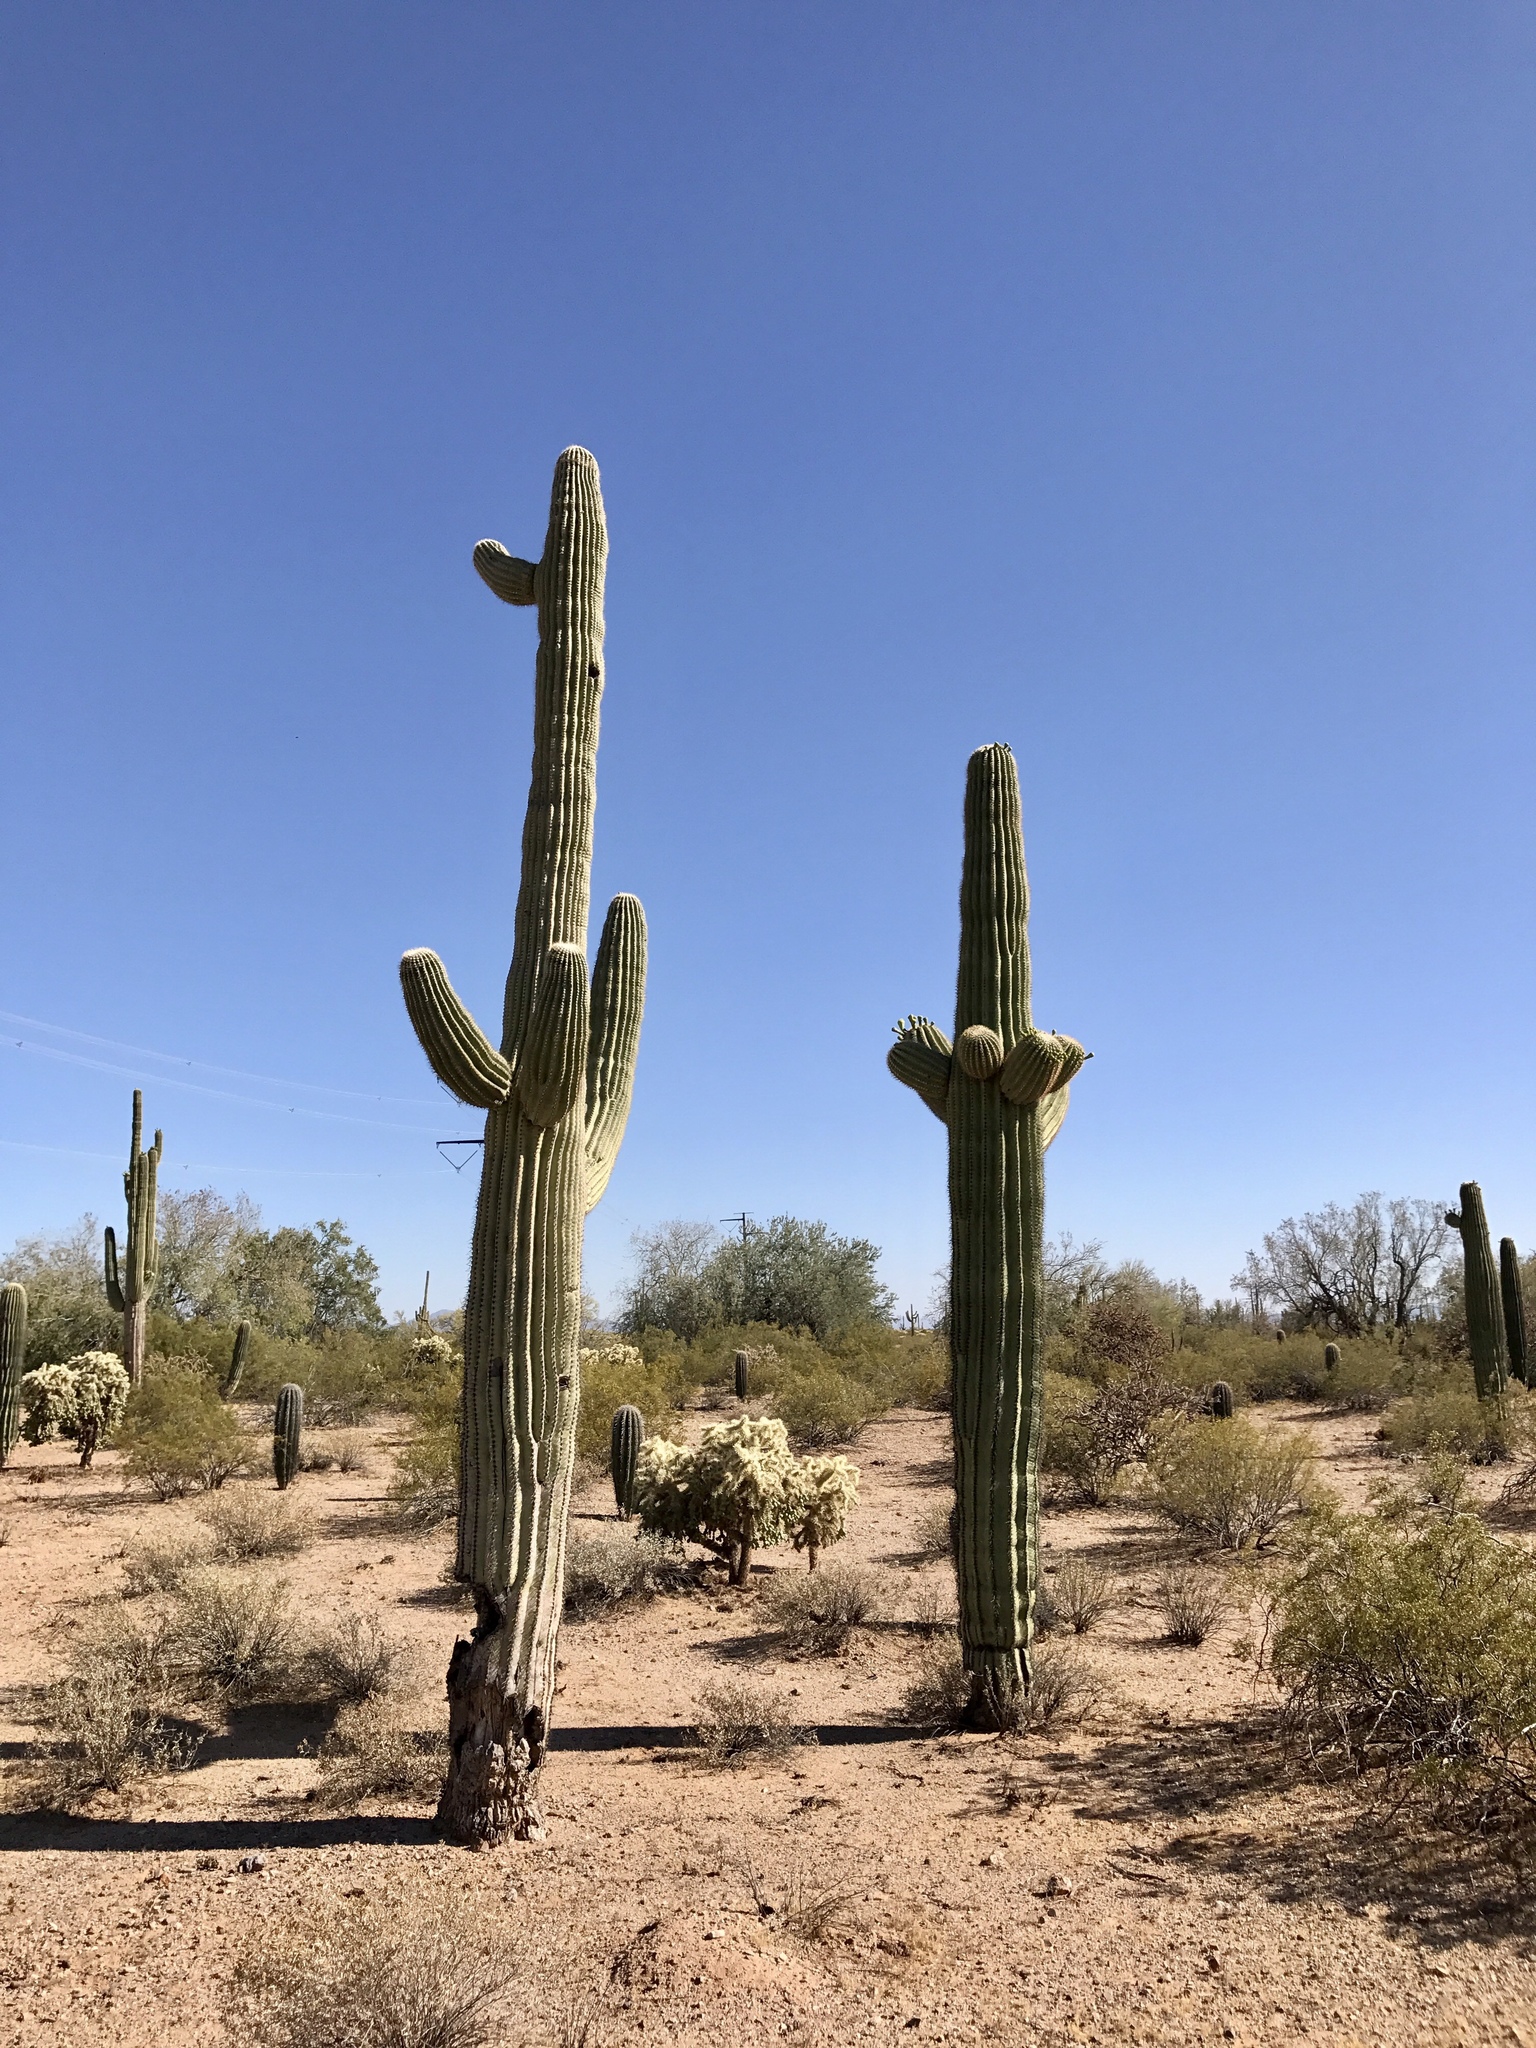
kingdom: Plantae
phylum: Tracheophyta
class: Magnoliopsida
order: Caryophyllales
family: Cactaceae
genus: Carnegiea
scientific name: Carnegiea gigantea
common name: Saguaro
